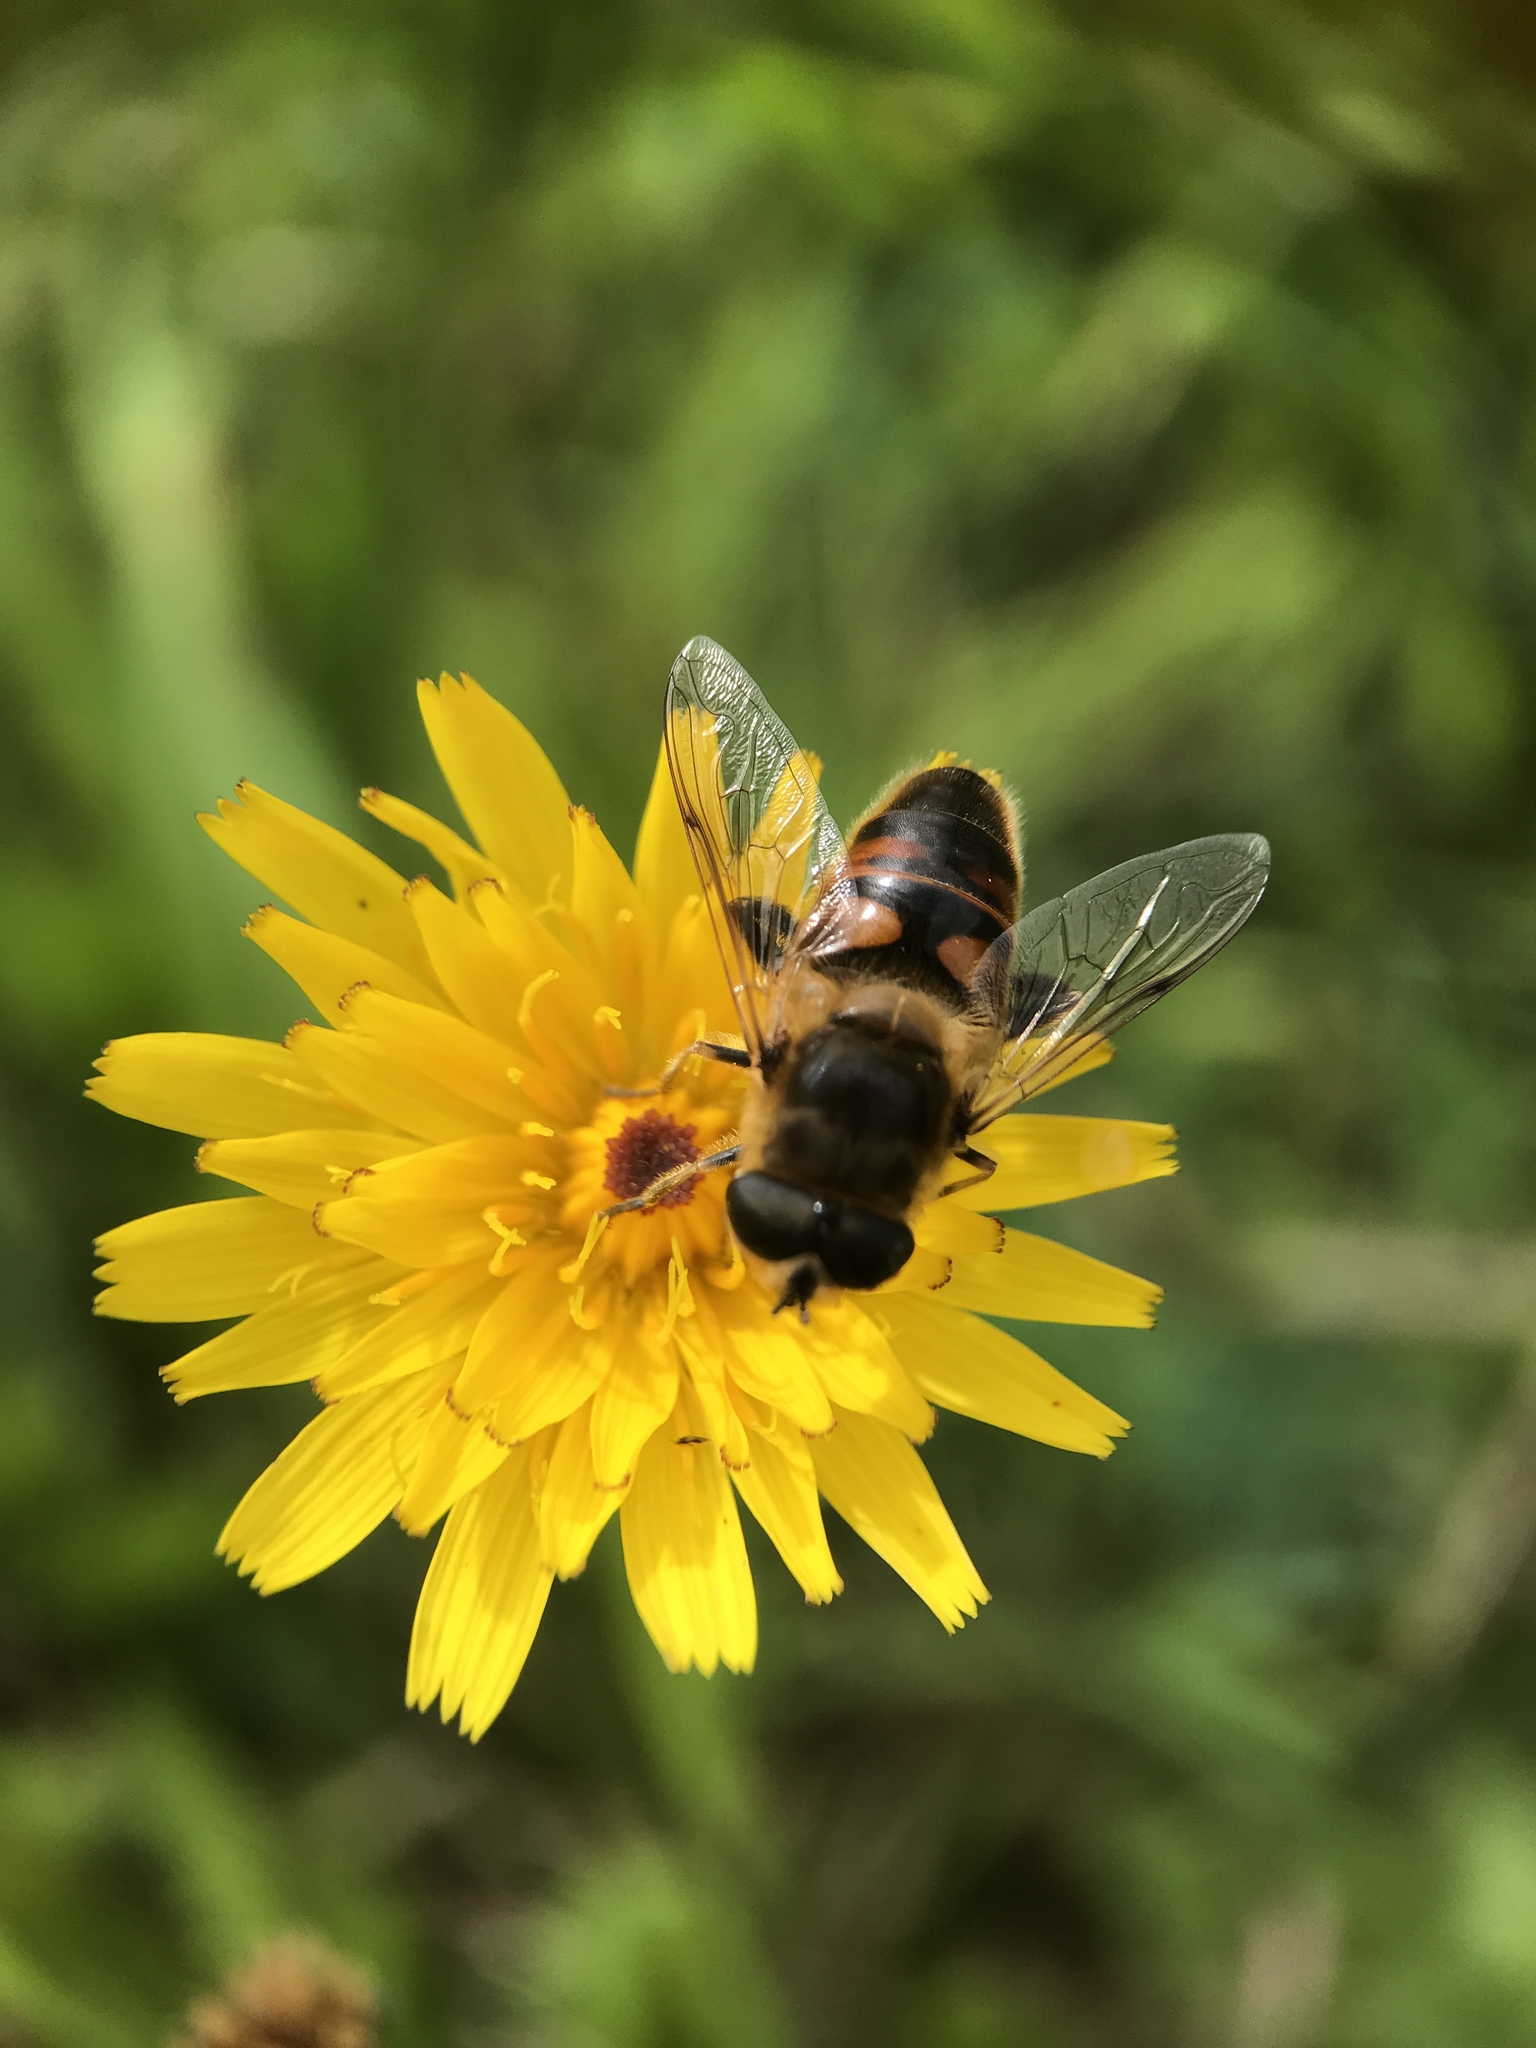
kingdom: Animalia
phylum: Arthropoda
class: Insecta
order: Diptera
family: Syrphidae
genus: Eristalis
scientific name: Eristalis tenax
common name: Drone fly
